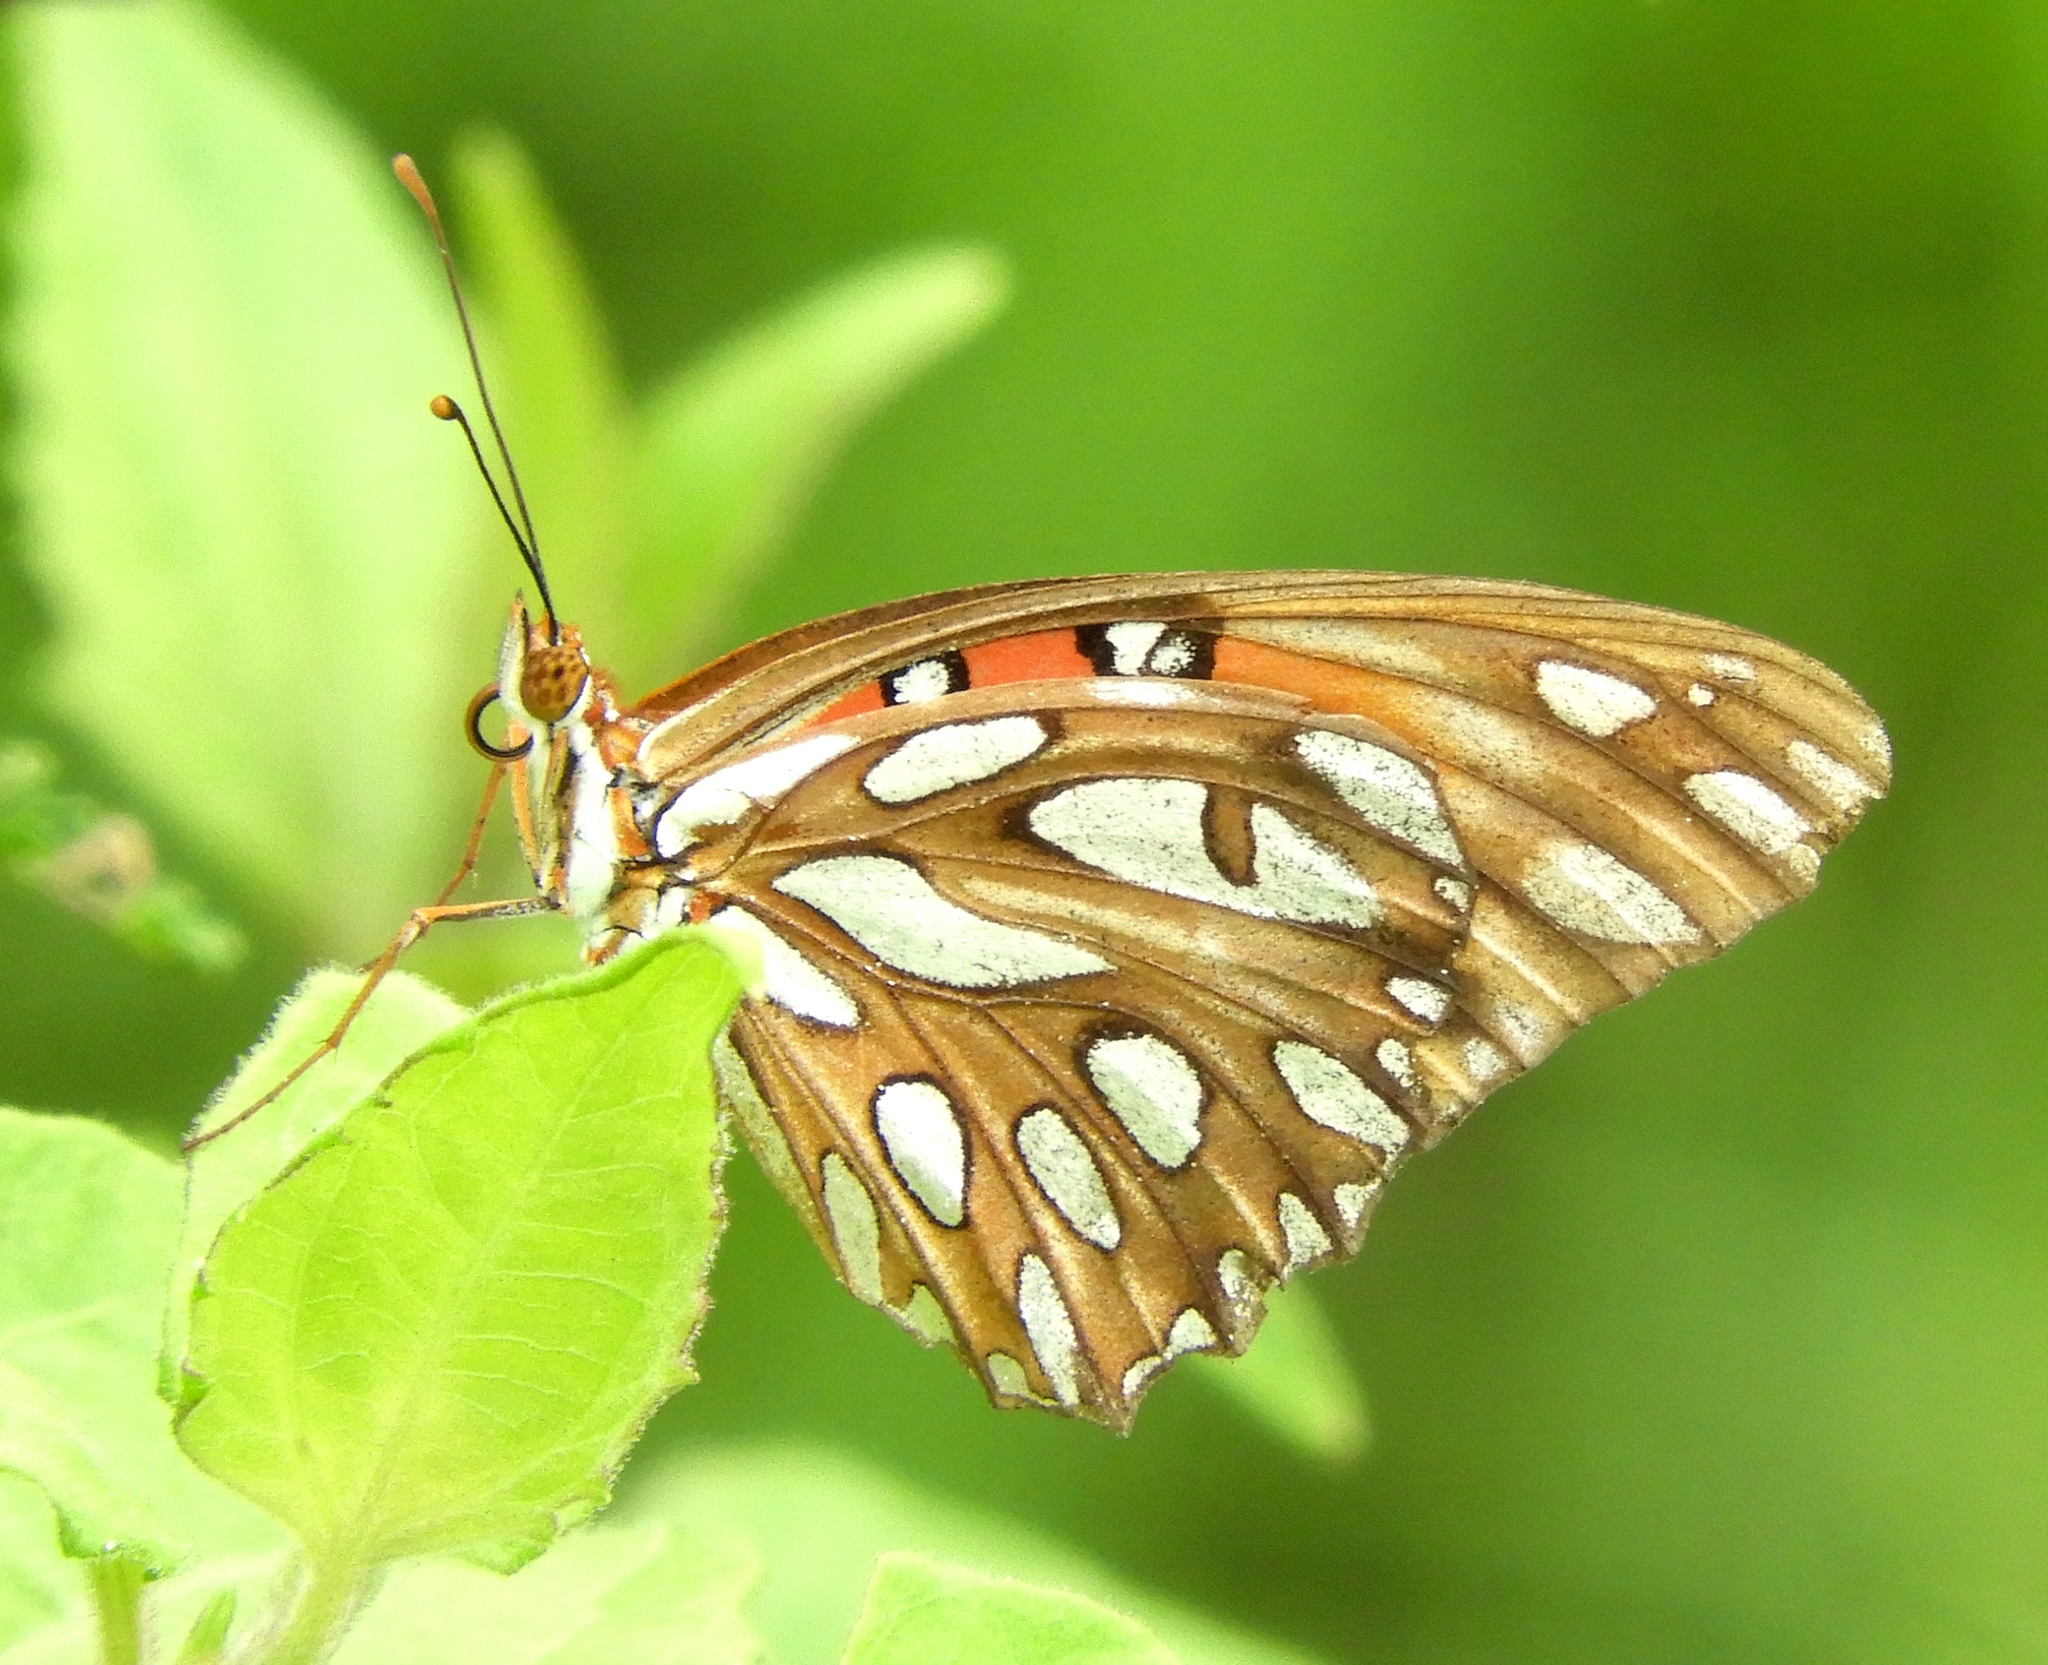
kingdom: Animalia
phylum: Arthropoda
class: Insecta
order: Lepidoptera
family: Nymphalidae
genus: Dione
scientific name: Dione vanillae
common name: Gulf fritillary
